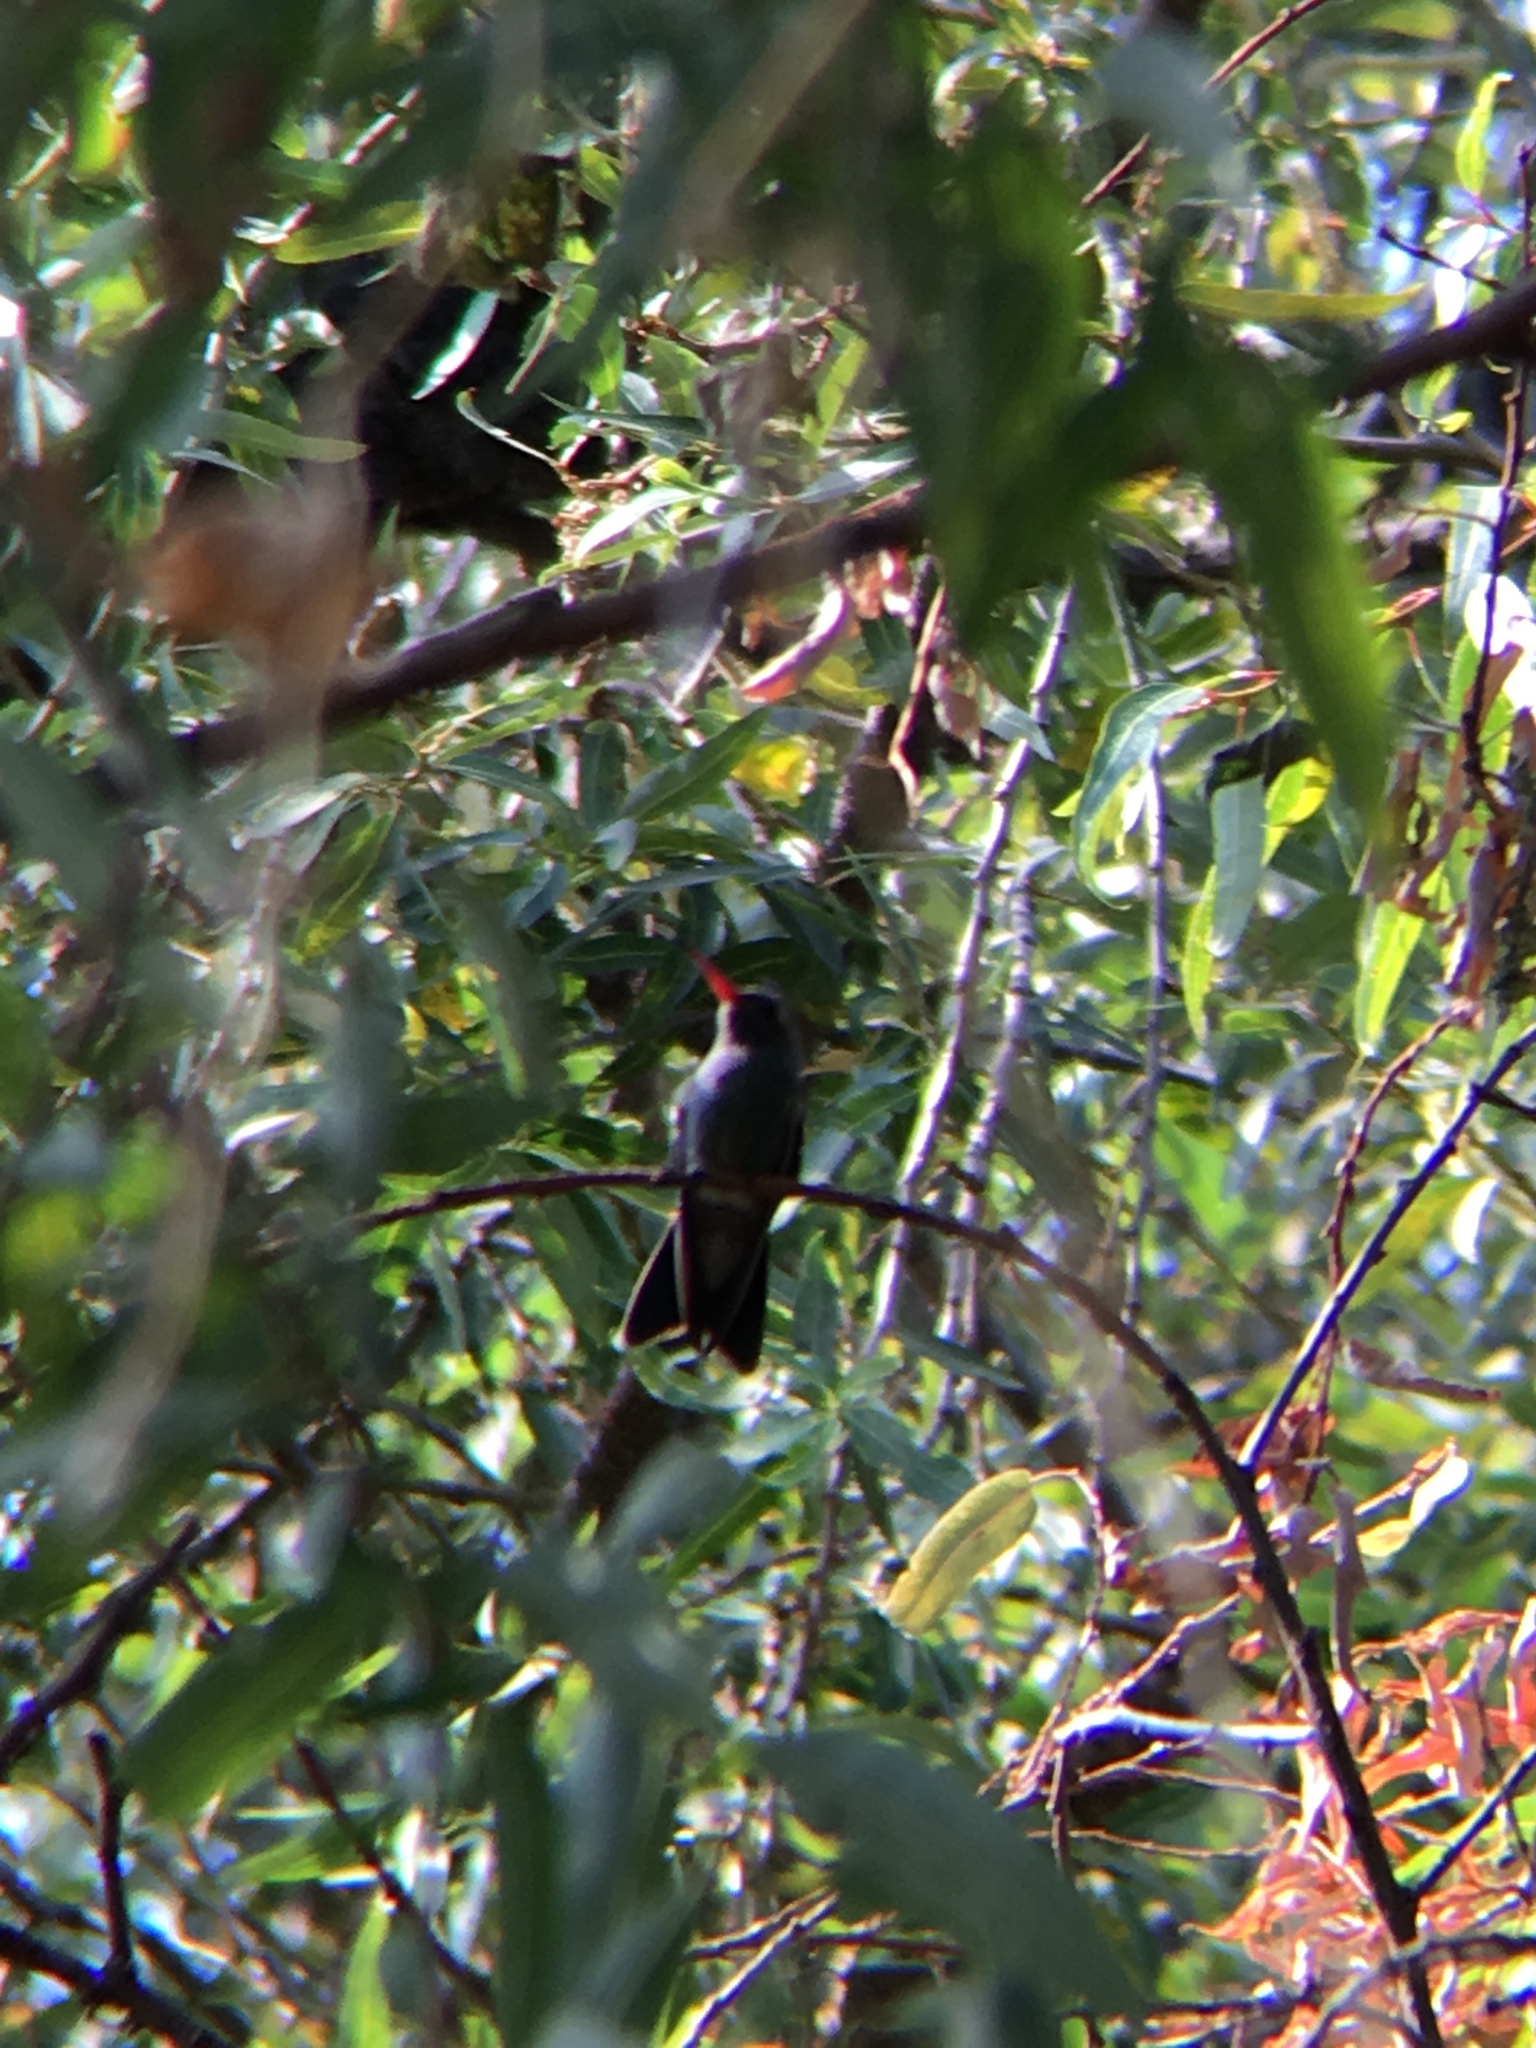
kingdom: Animalia
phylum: Chordata
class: Aves
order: Apodiformes
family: Trochilidae
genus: Cynanthus
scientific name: Cynanthus latirostris
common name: Broad-billed hummingbird
